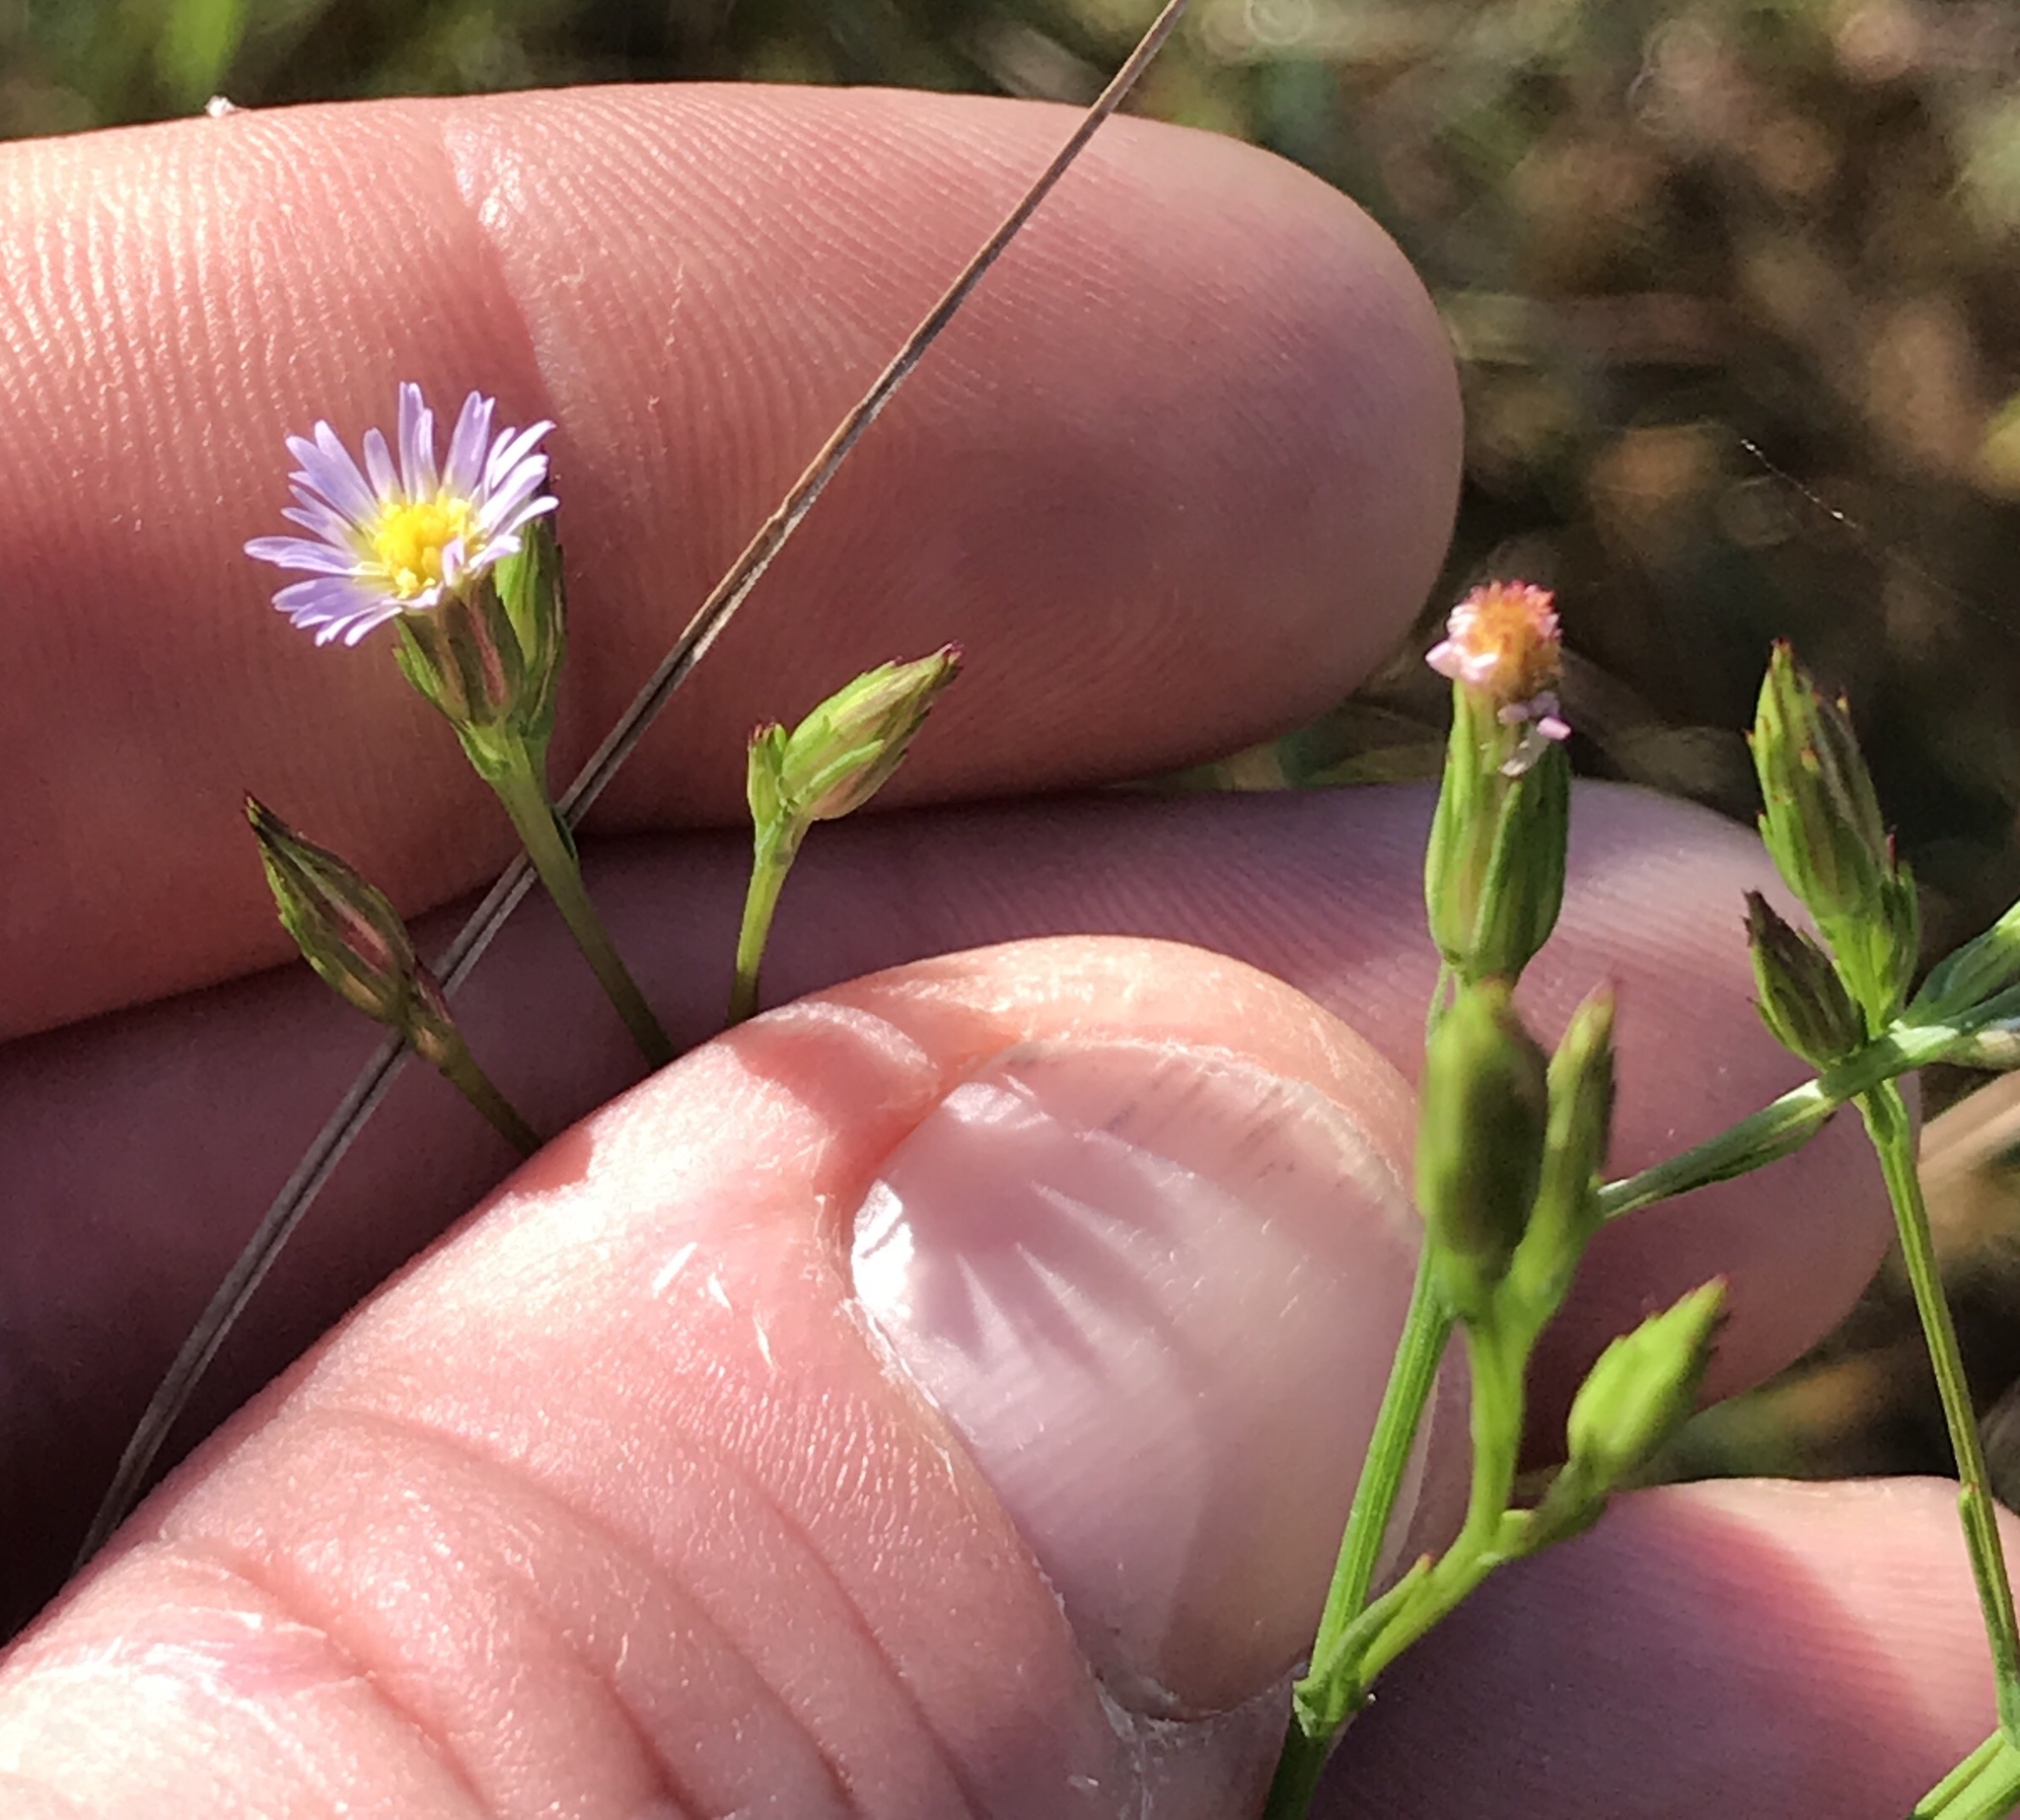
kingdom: Plantae
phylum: Tracheophyta
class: Magnoliopsida
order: Asterales
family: Asteraceae
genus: Symphyotrichum
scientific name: Symphyotrichum subulatum
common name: Annual saltmarsh aster
